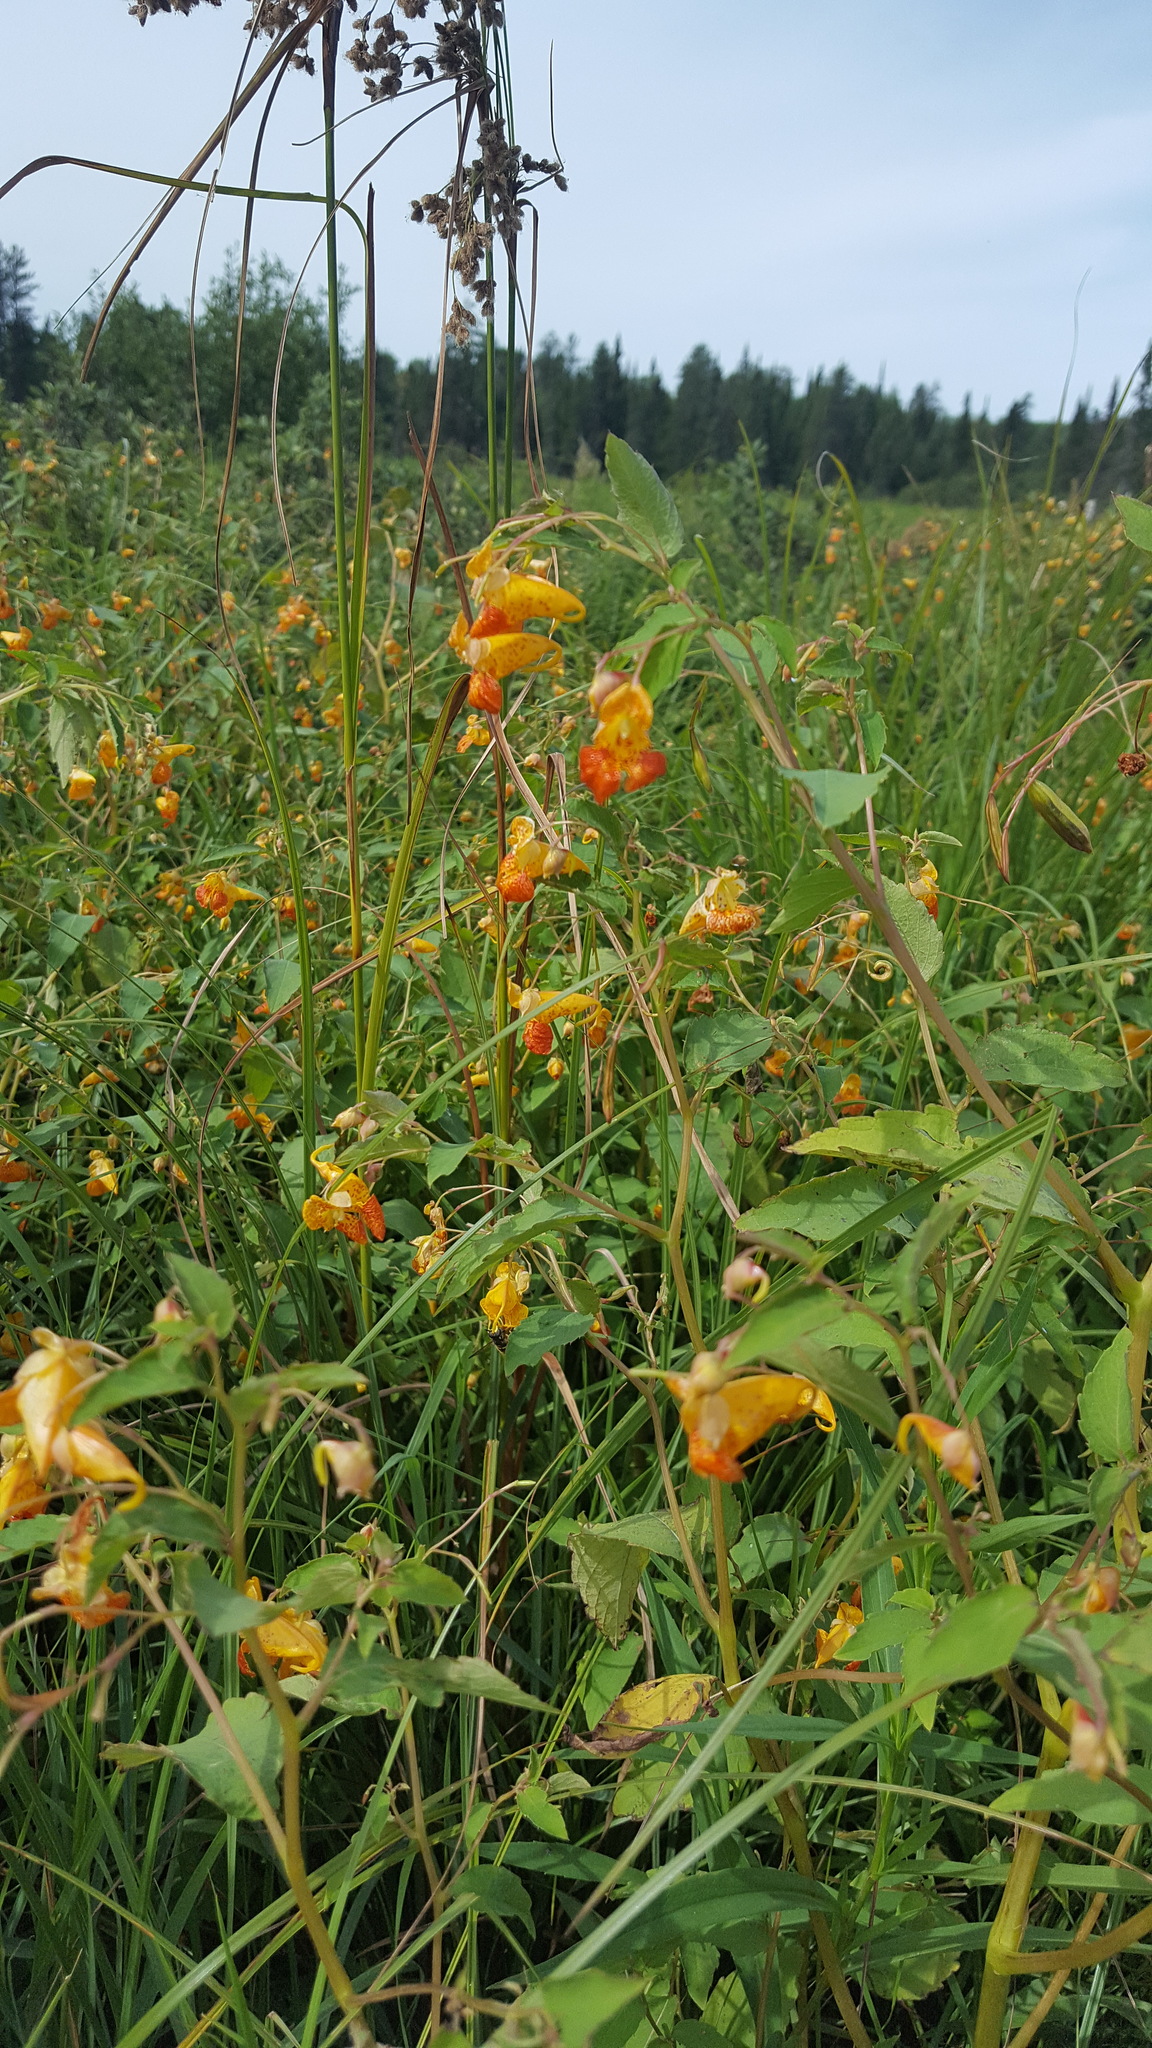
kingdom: Plantae
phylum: Tracheophyta
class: Magnoliopsida
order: Ericales
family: Balsaminaceae
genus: Impatiens
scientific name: Impatiens capensis
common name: Orange balsam
